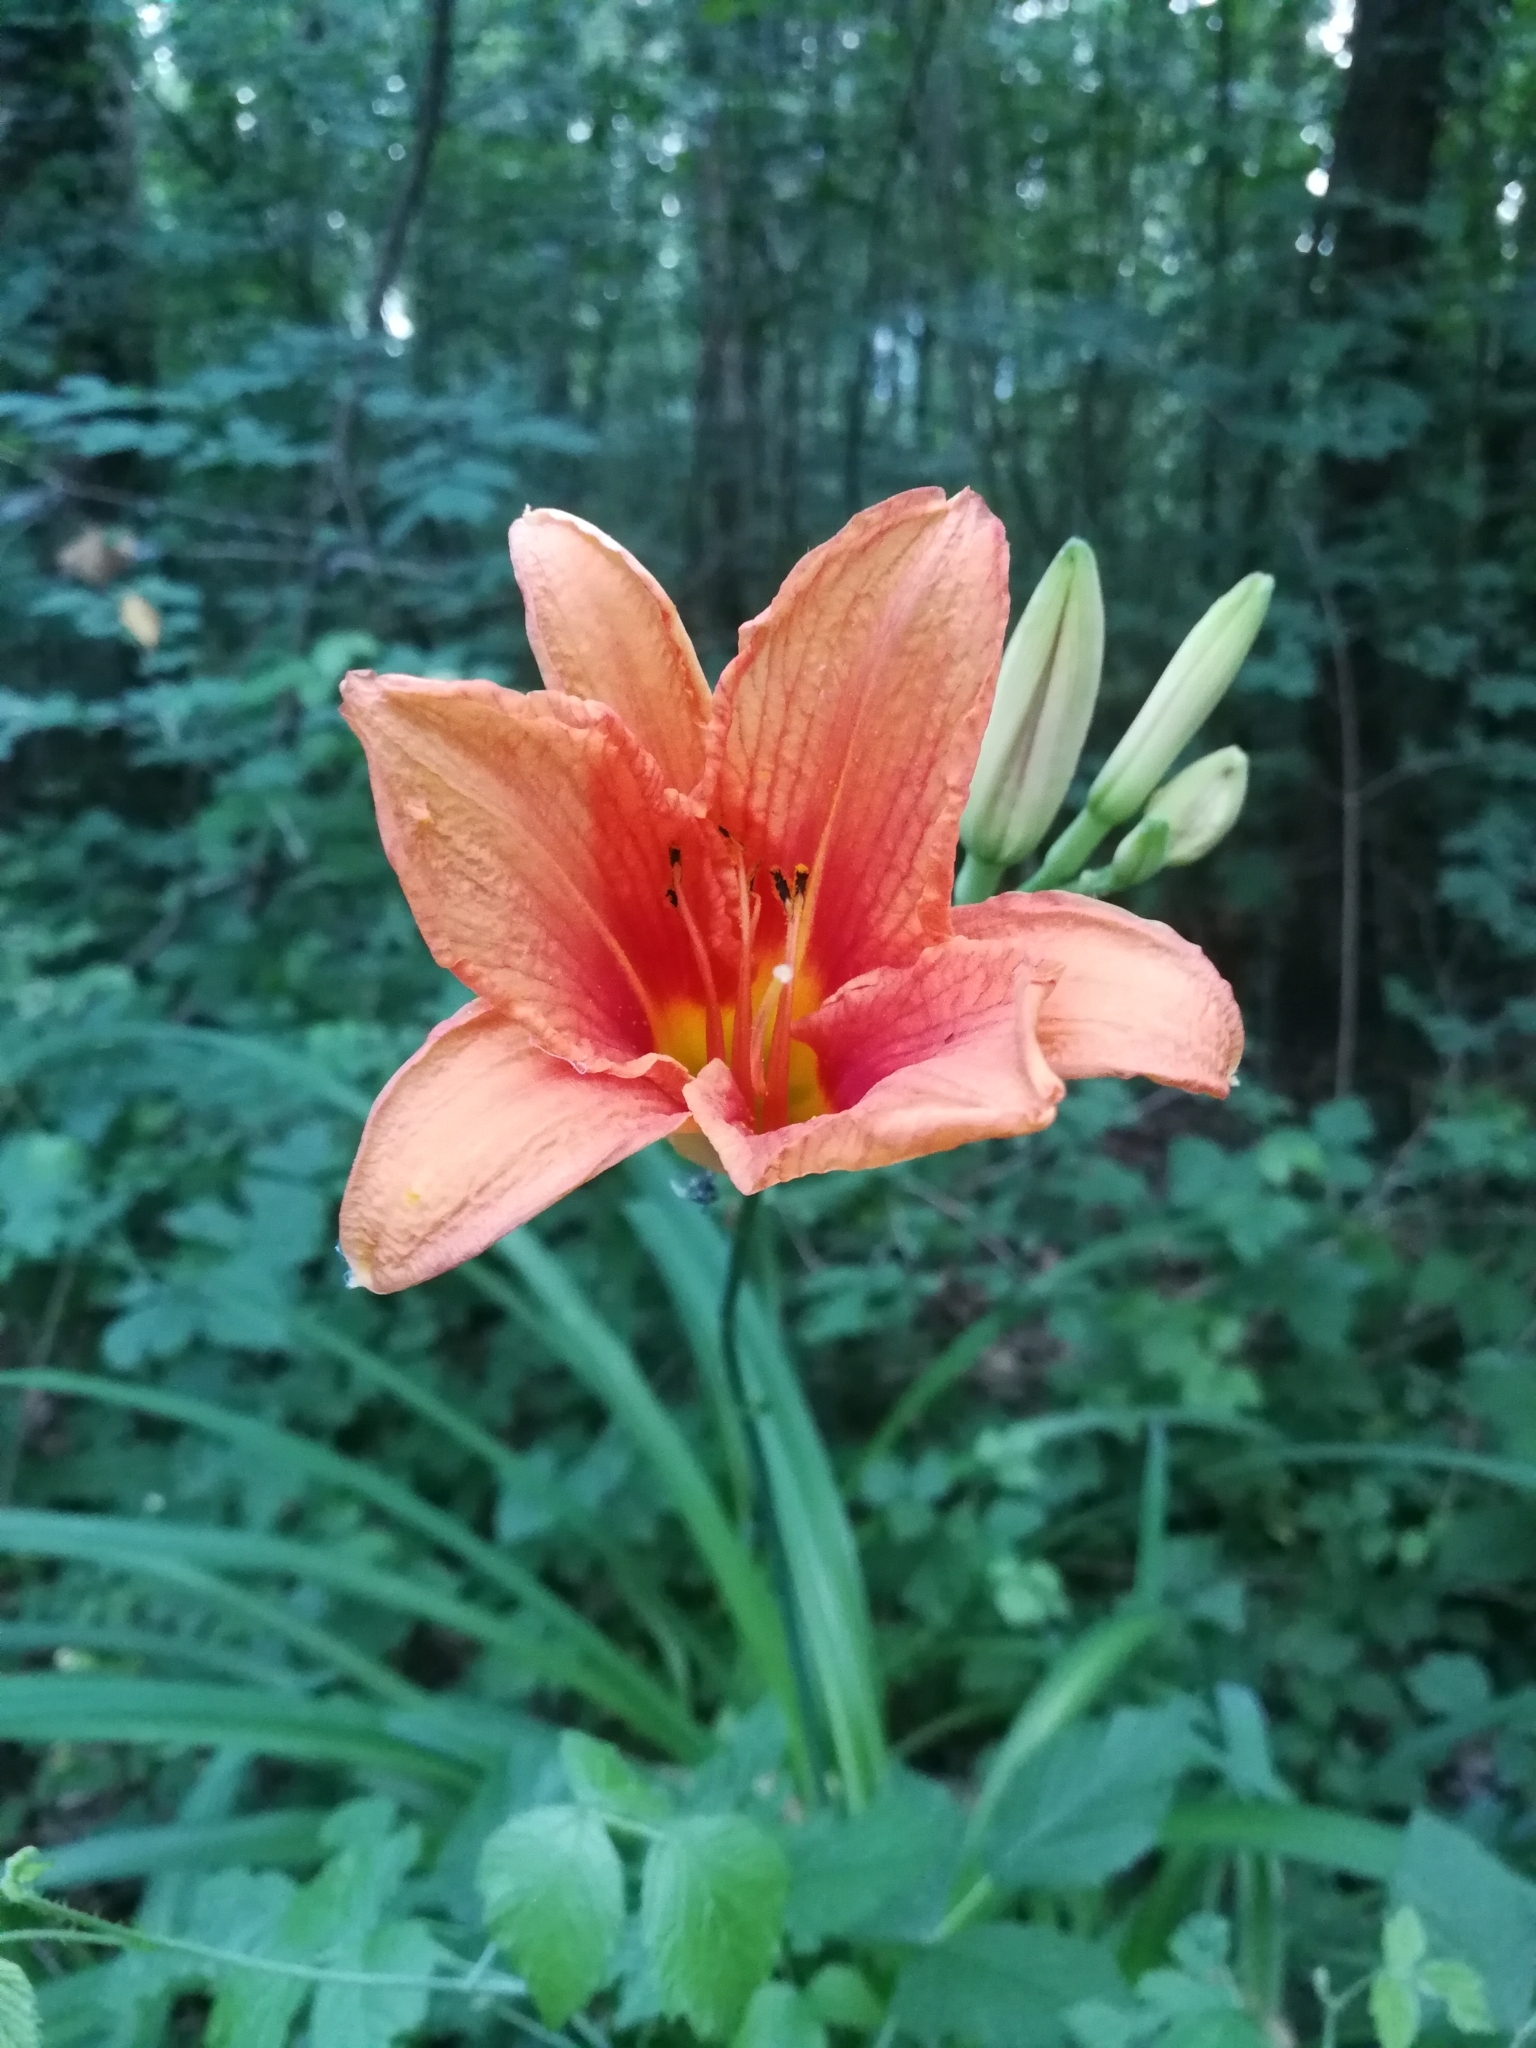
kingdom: Plantae
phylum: Tracheophyta
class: Liliopsida
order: Asparagales
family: Asphodelaceae
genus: Hemerocallis
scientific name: Hemerocallis fulva
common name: Orange day-lily
